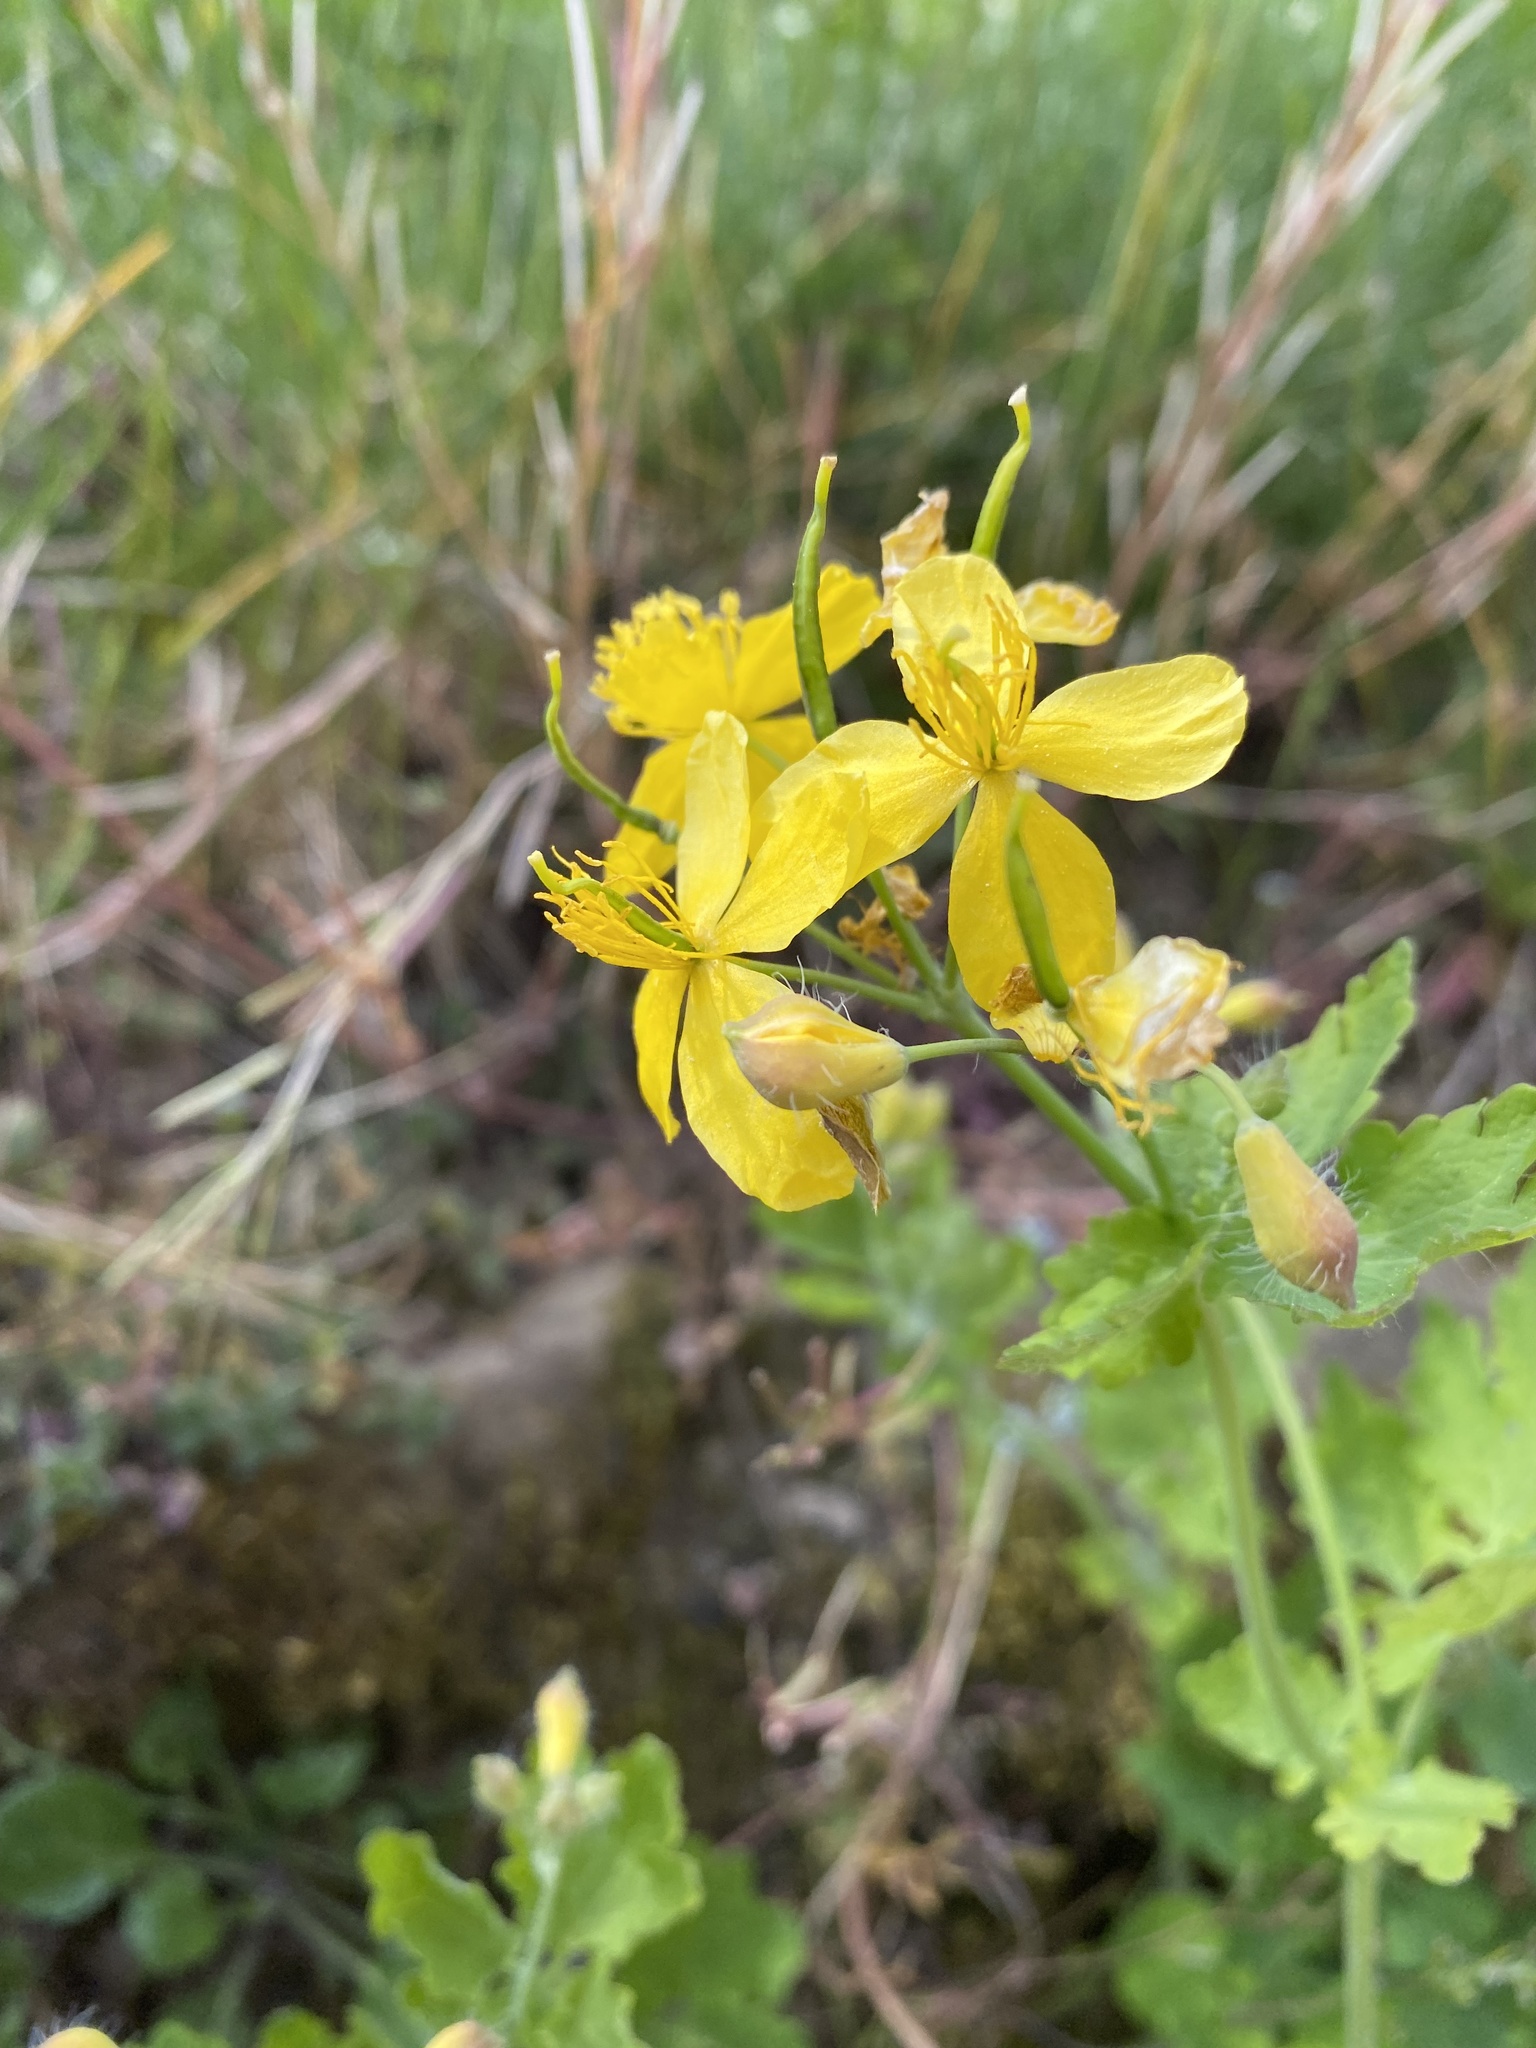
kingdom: Plantae
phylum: Tracheophyta
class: Magnoliopsida
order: Ranunculales
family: Papaveraceae
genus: Chelidonium
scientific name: Chelidonium majus
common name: Greater celandine
